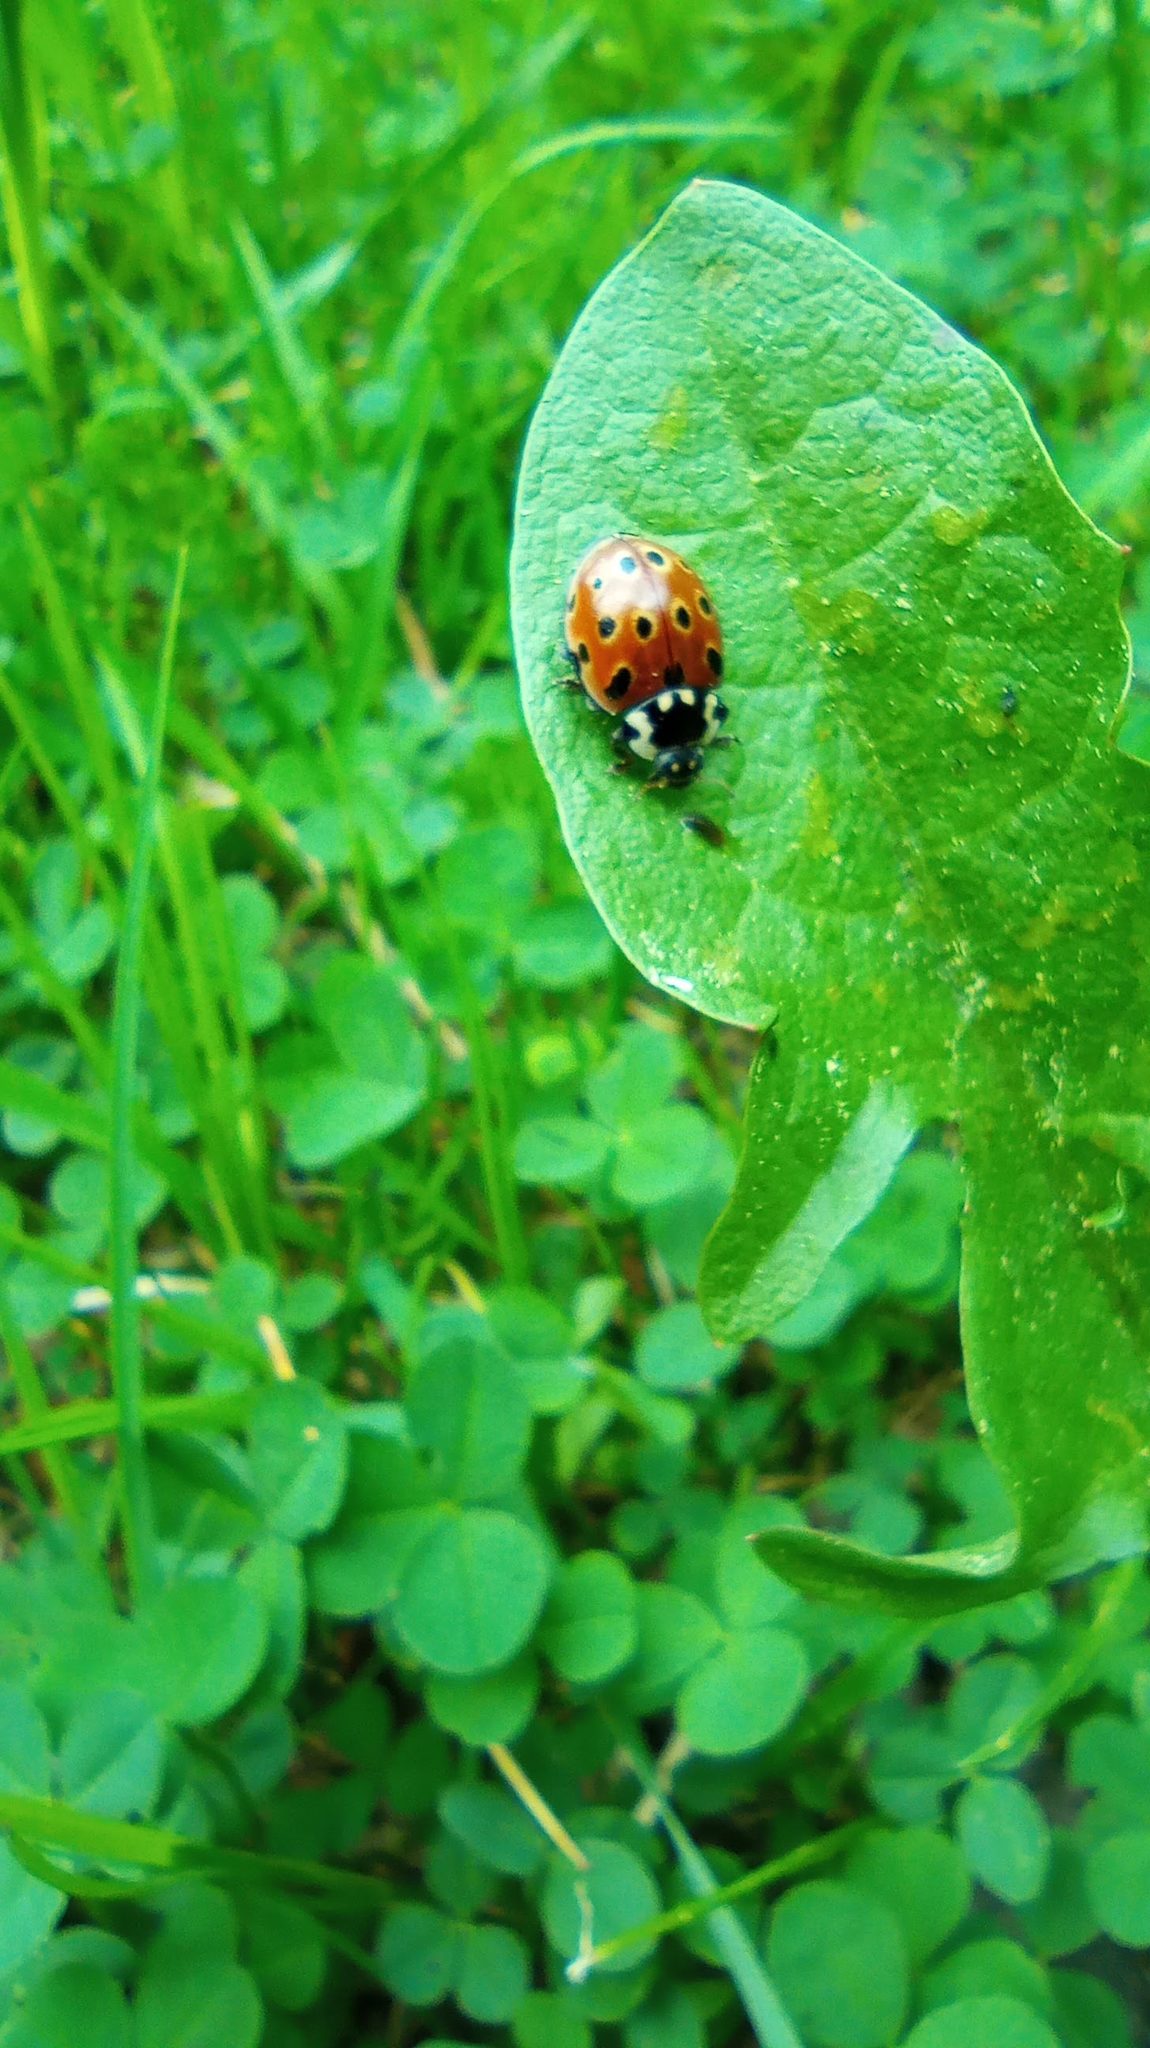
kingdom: Animalia
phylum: Arthropoda
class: Insecta
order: Coleoptera
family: Coccinellidae
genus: Anatis
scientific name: Anatis ocellata
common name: Eyed ladybird
